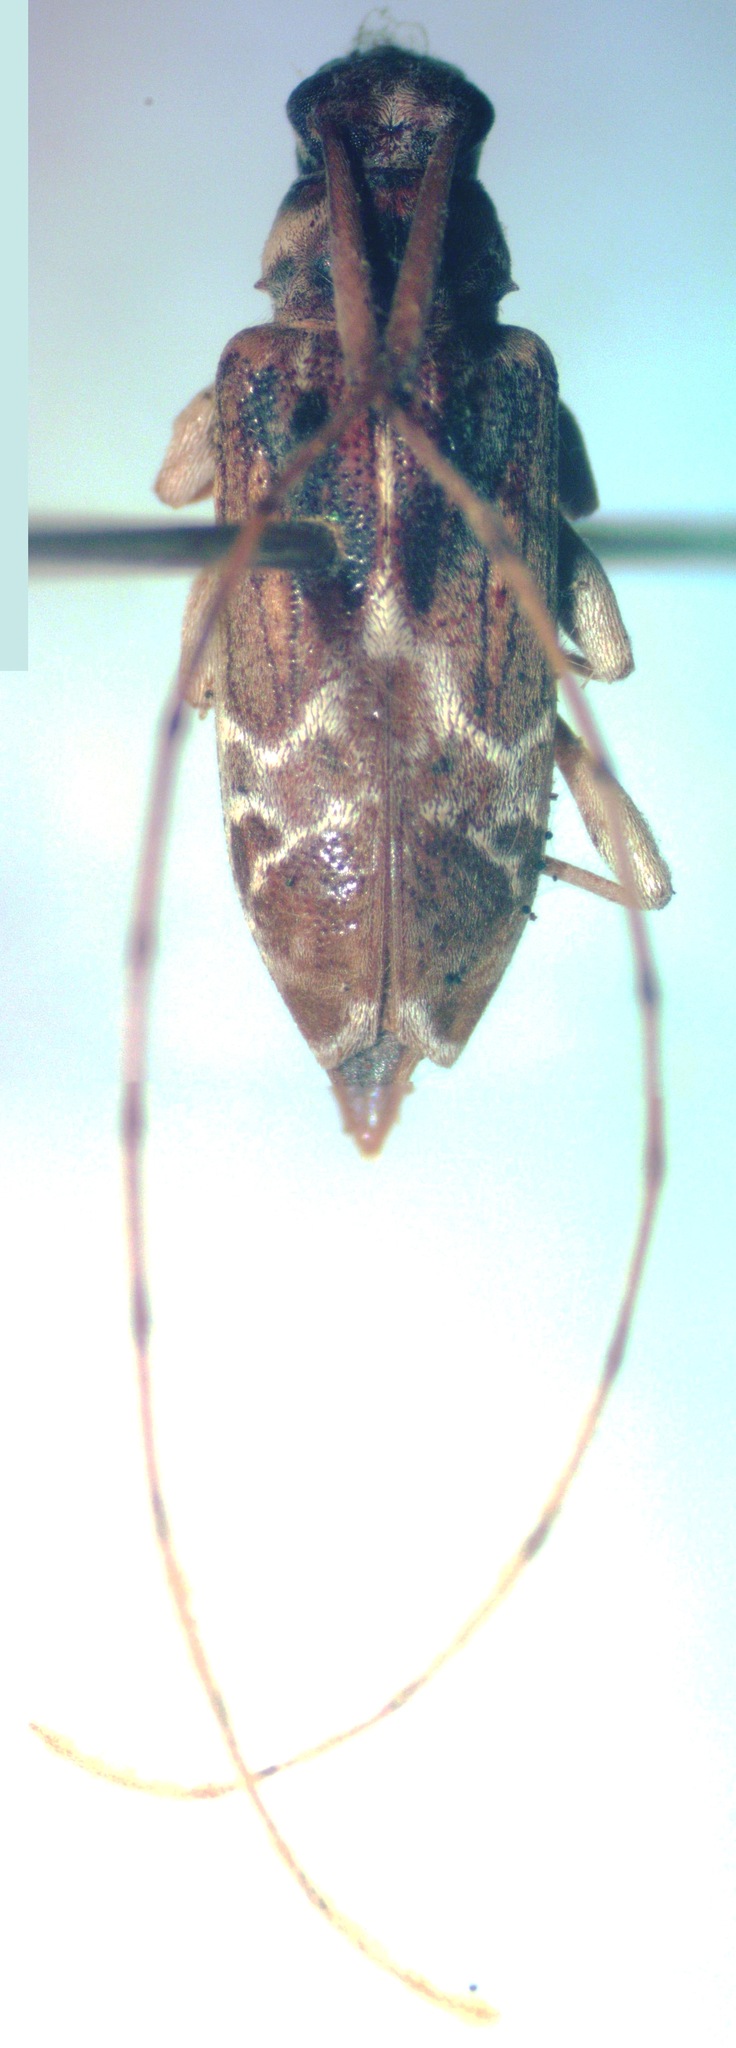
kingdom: Animalia
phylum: Arthropoda
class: Insecta
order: Coleoptera
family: Cerambycidae
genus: Ozineus
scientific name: Ozineus arietinus
